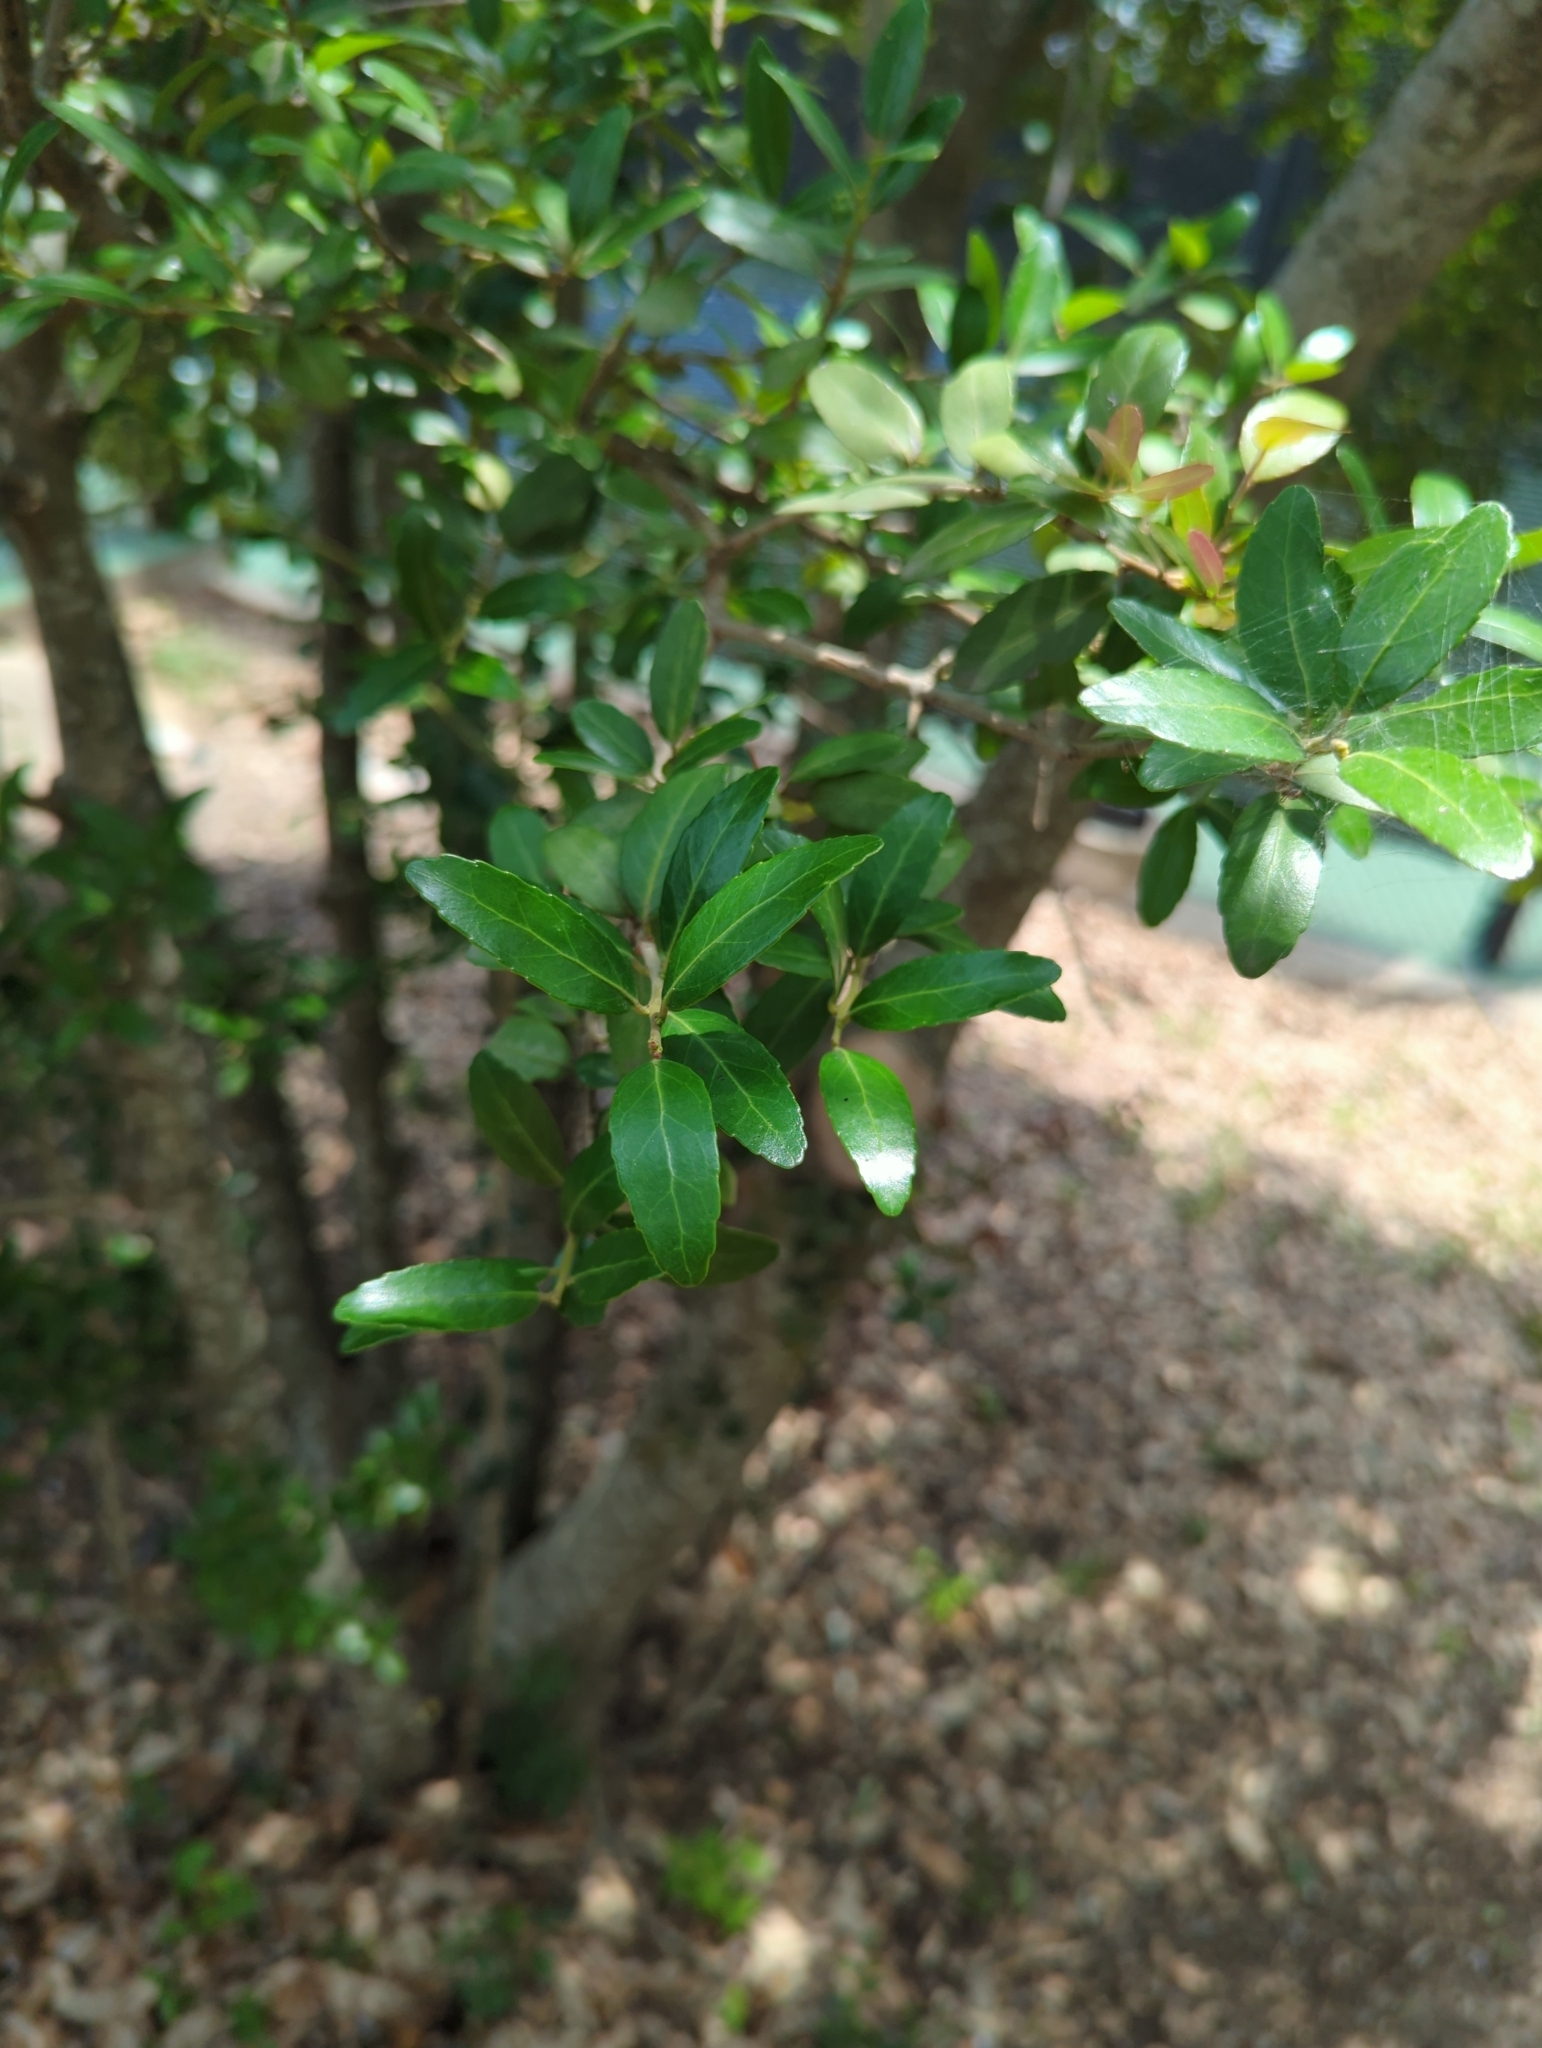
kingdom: Plantae
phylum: Tracheophyta
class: Magnoliopsida
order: Aquifoliales
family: Aquifoliaceae
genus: Ilex
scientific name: Ilex vomitoria
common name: Yaupon holly
